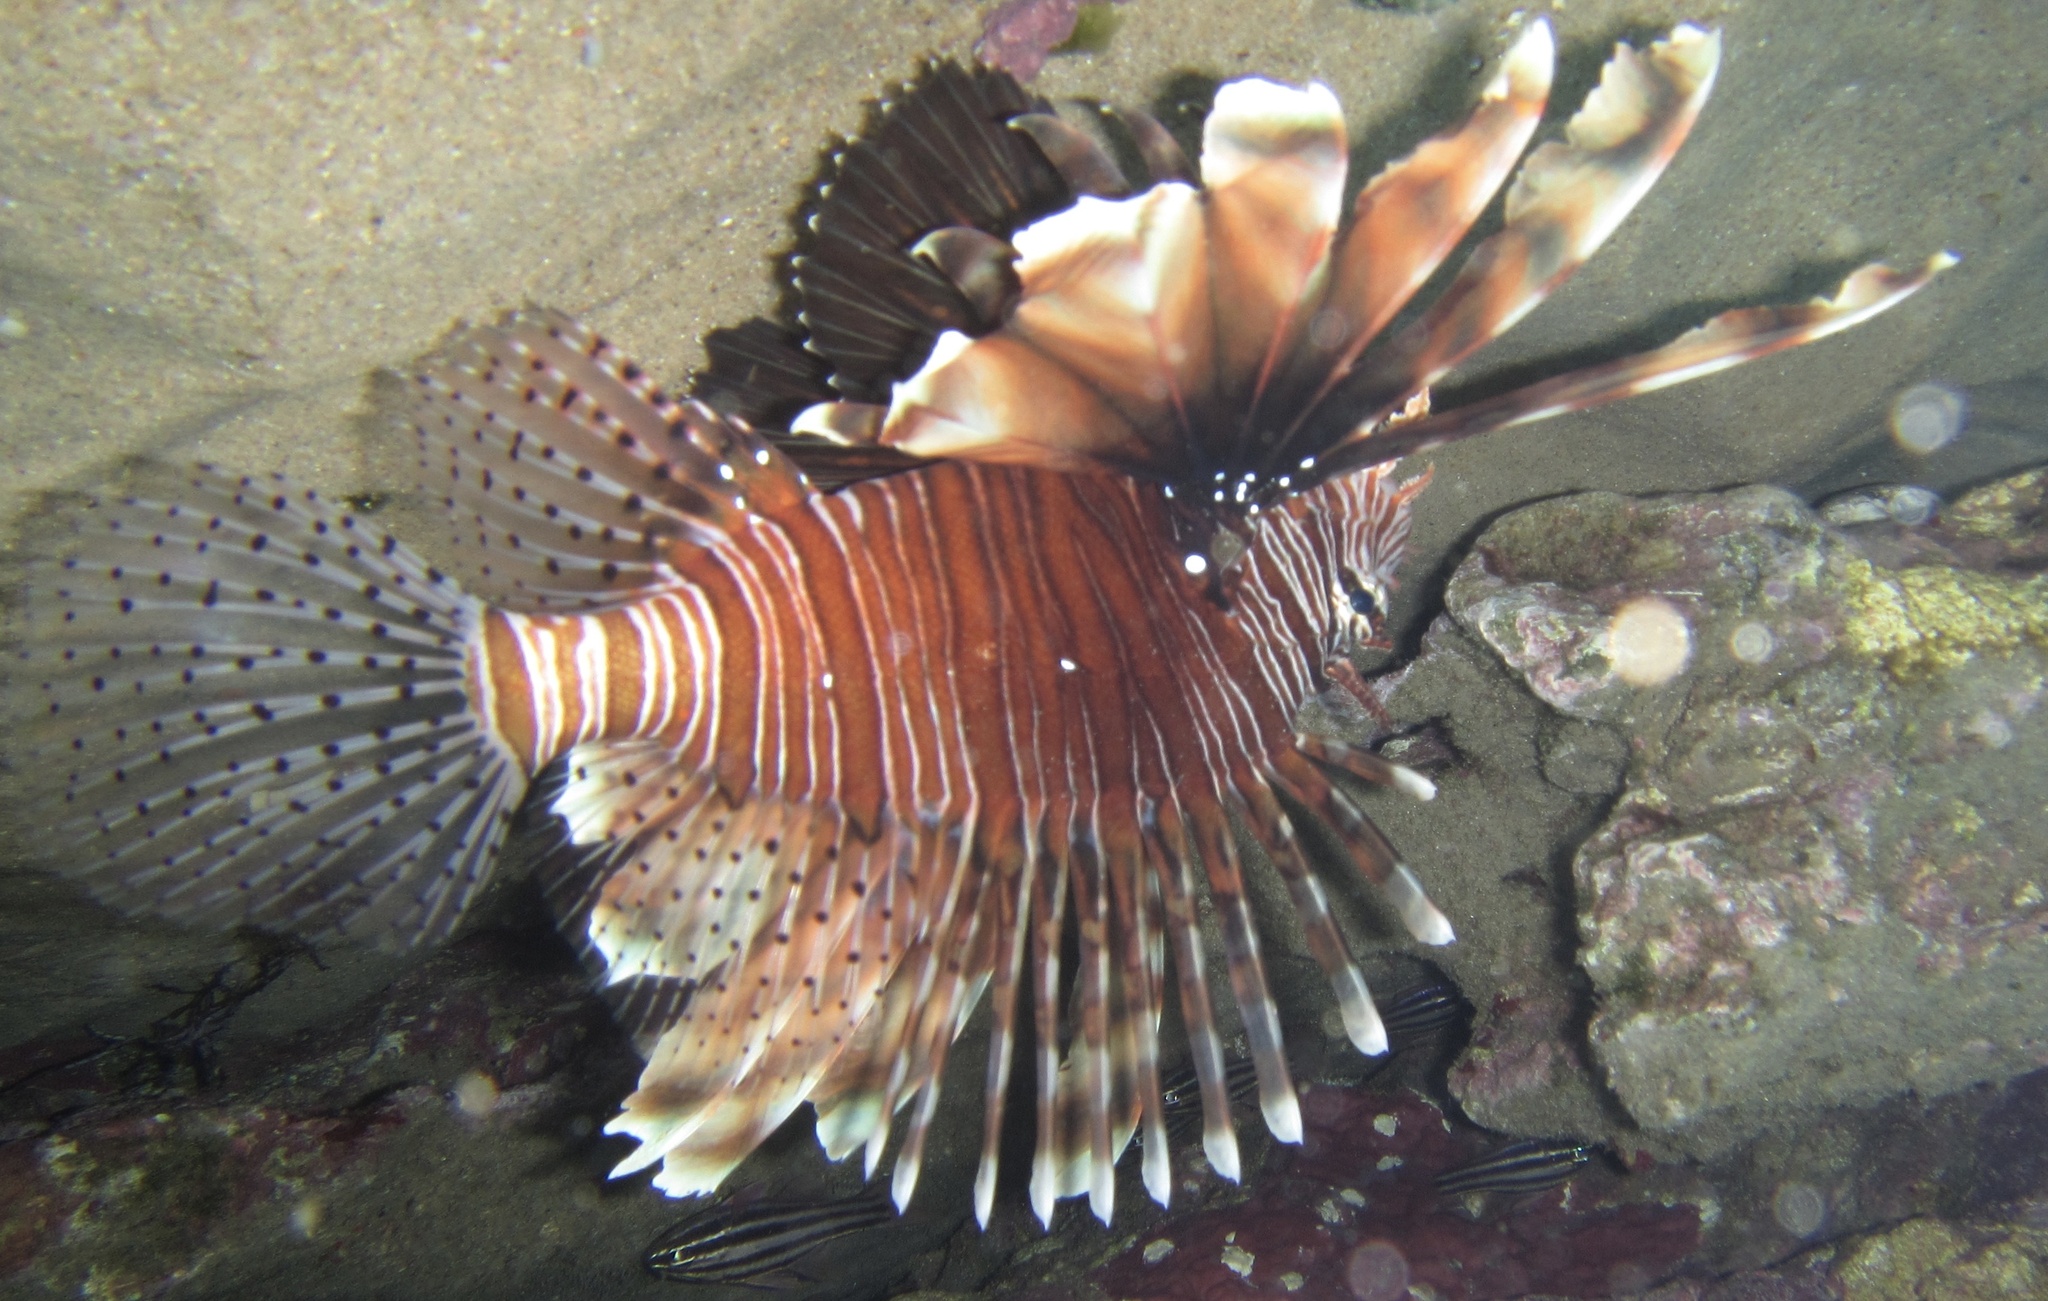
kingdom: Animalia
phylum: Chordata
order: Scorpaeniformes
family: Scorpaenidae
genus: Pterois
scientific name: Pterois miles
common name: Devil firefish
